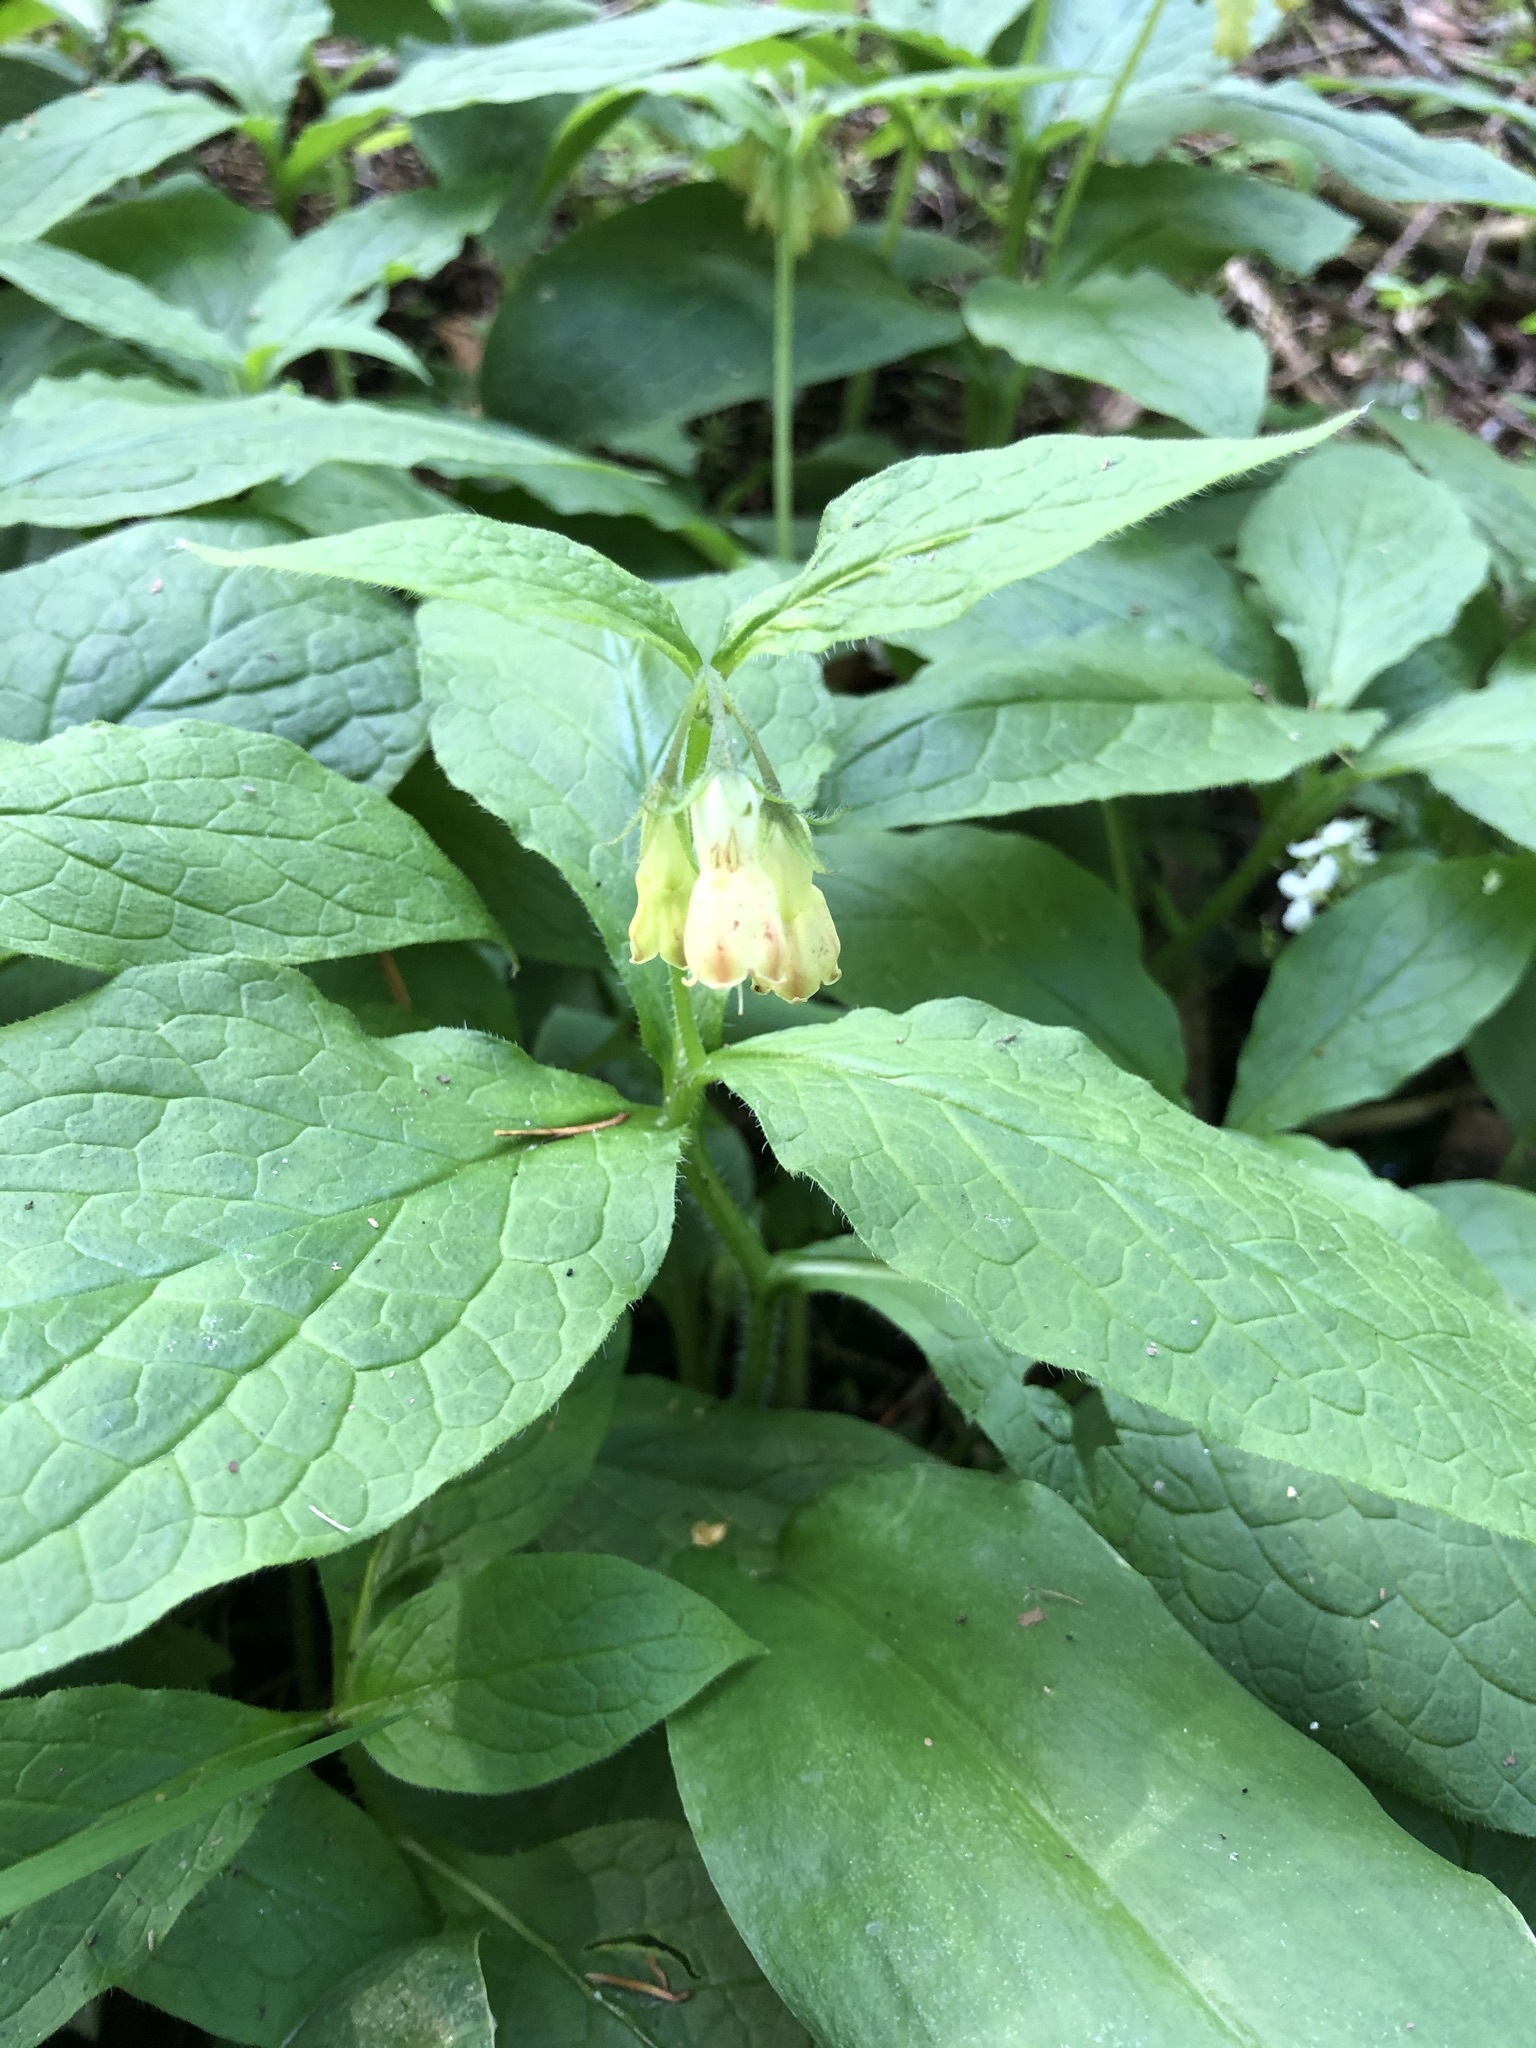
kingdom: Plantae
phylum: Tracheophyta
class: Magnoliopsida
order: Boraginales
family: Boraginaceae
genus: Symphytum
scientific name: Symphytum tuberosum
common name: Tuberous comfrey
